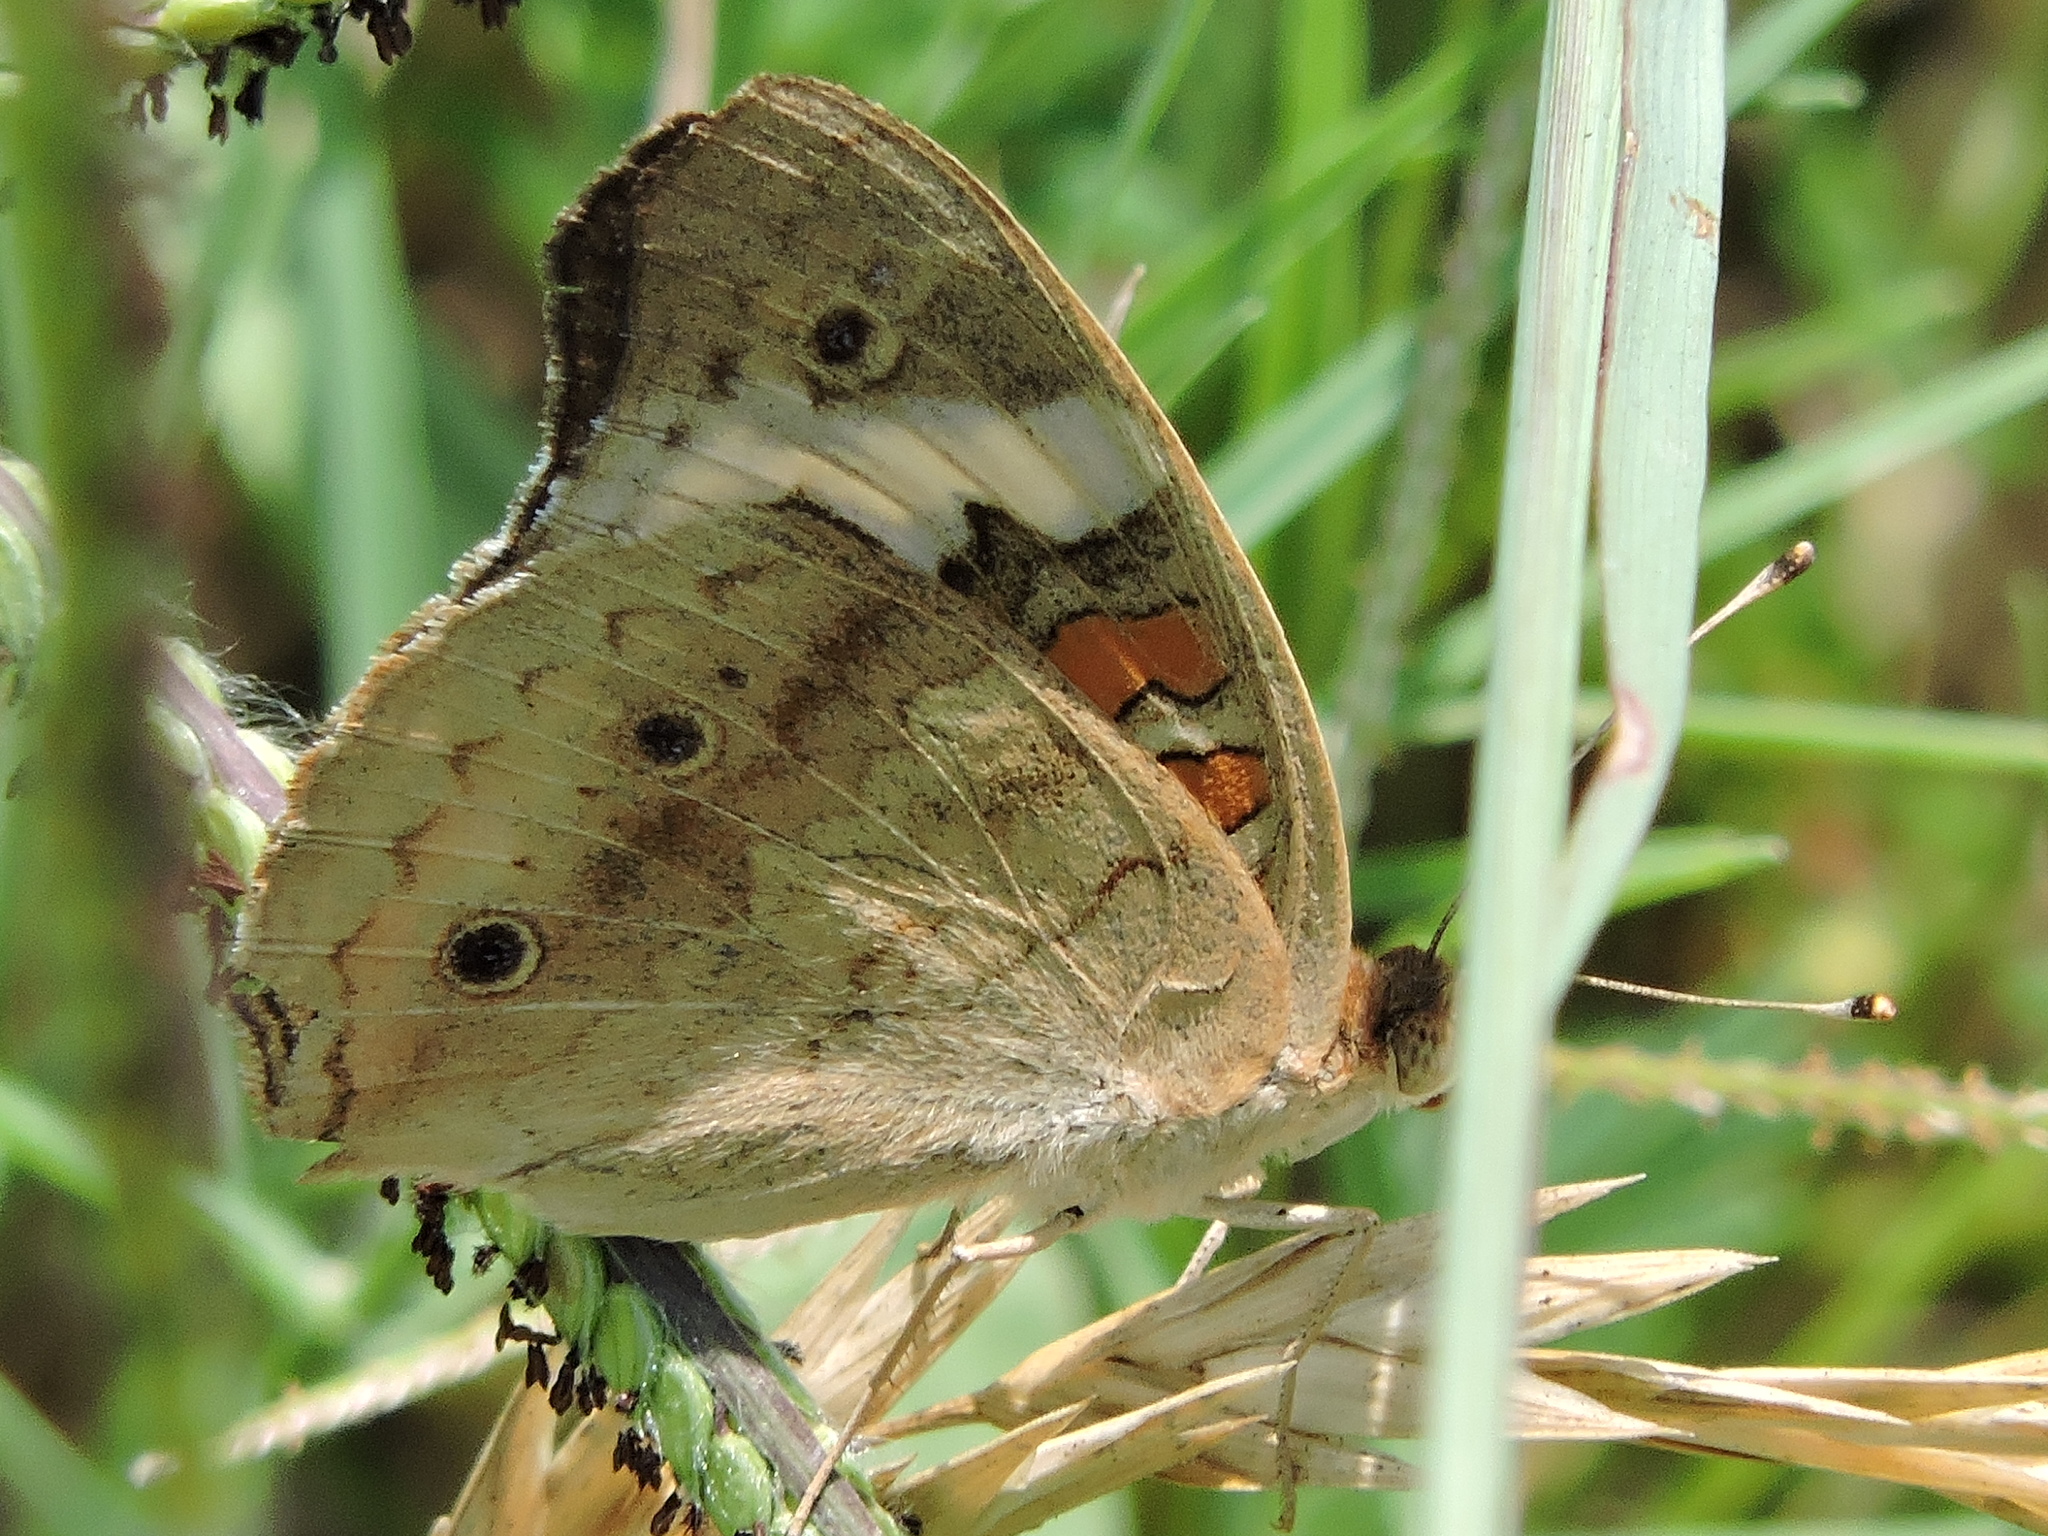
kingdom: Animalia
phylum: Arthropoda
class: Insecta
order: Lepidoptera
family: Nymphalidae
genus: Junonia
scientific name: Junonia coenia
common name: Common buckeye
